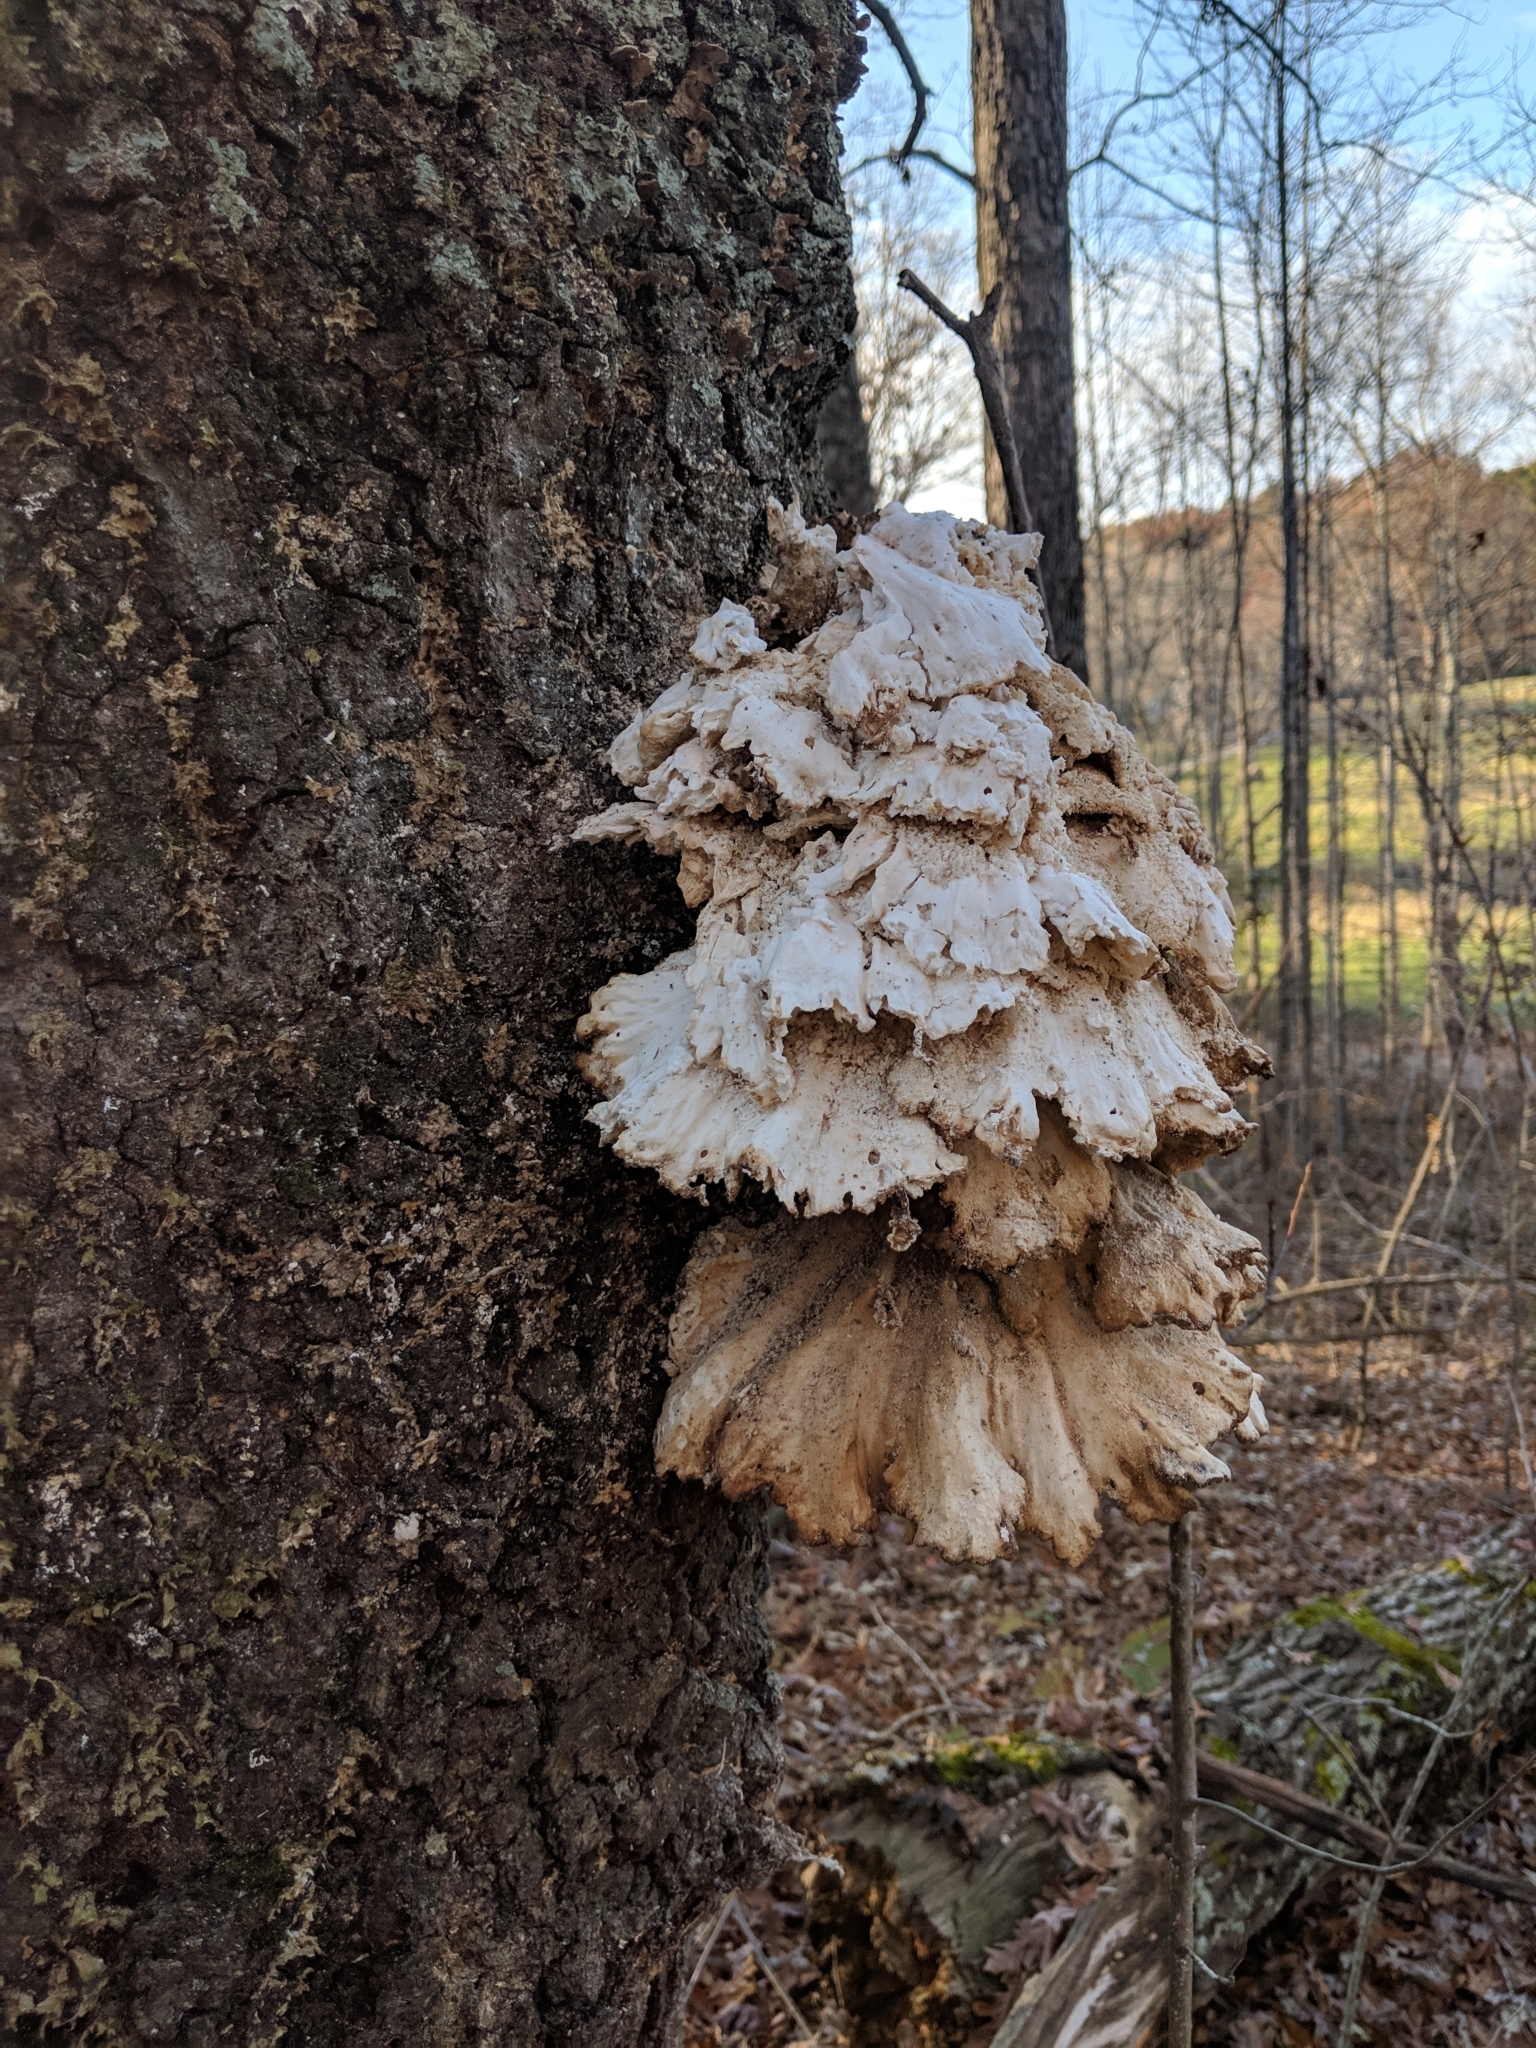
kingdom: Fungi
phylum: Basidiomycota
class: Agaricomycetes
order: Polyporales
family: Laetiporaceae
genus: Laetiporus
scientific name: Laetiporus sulphureus
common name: Chicken of the woods
